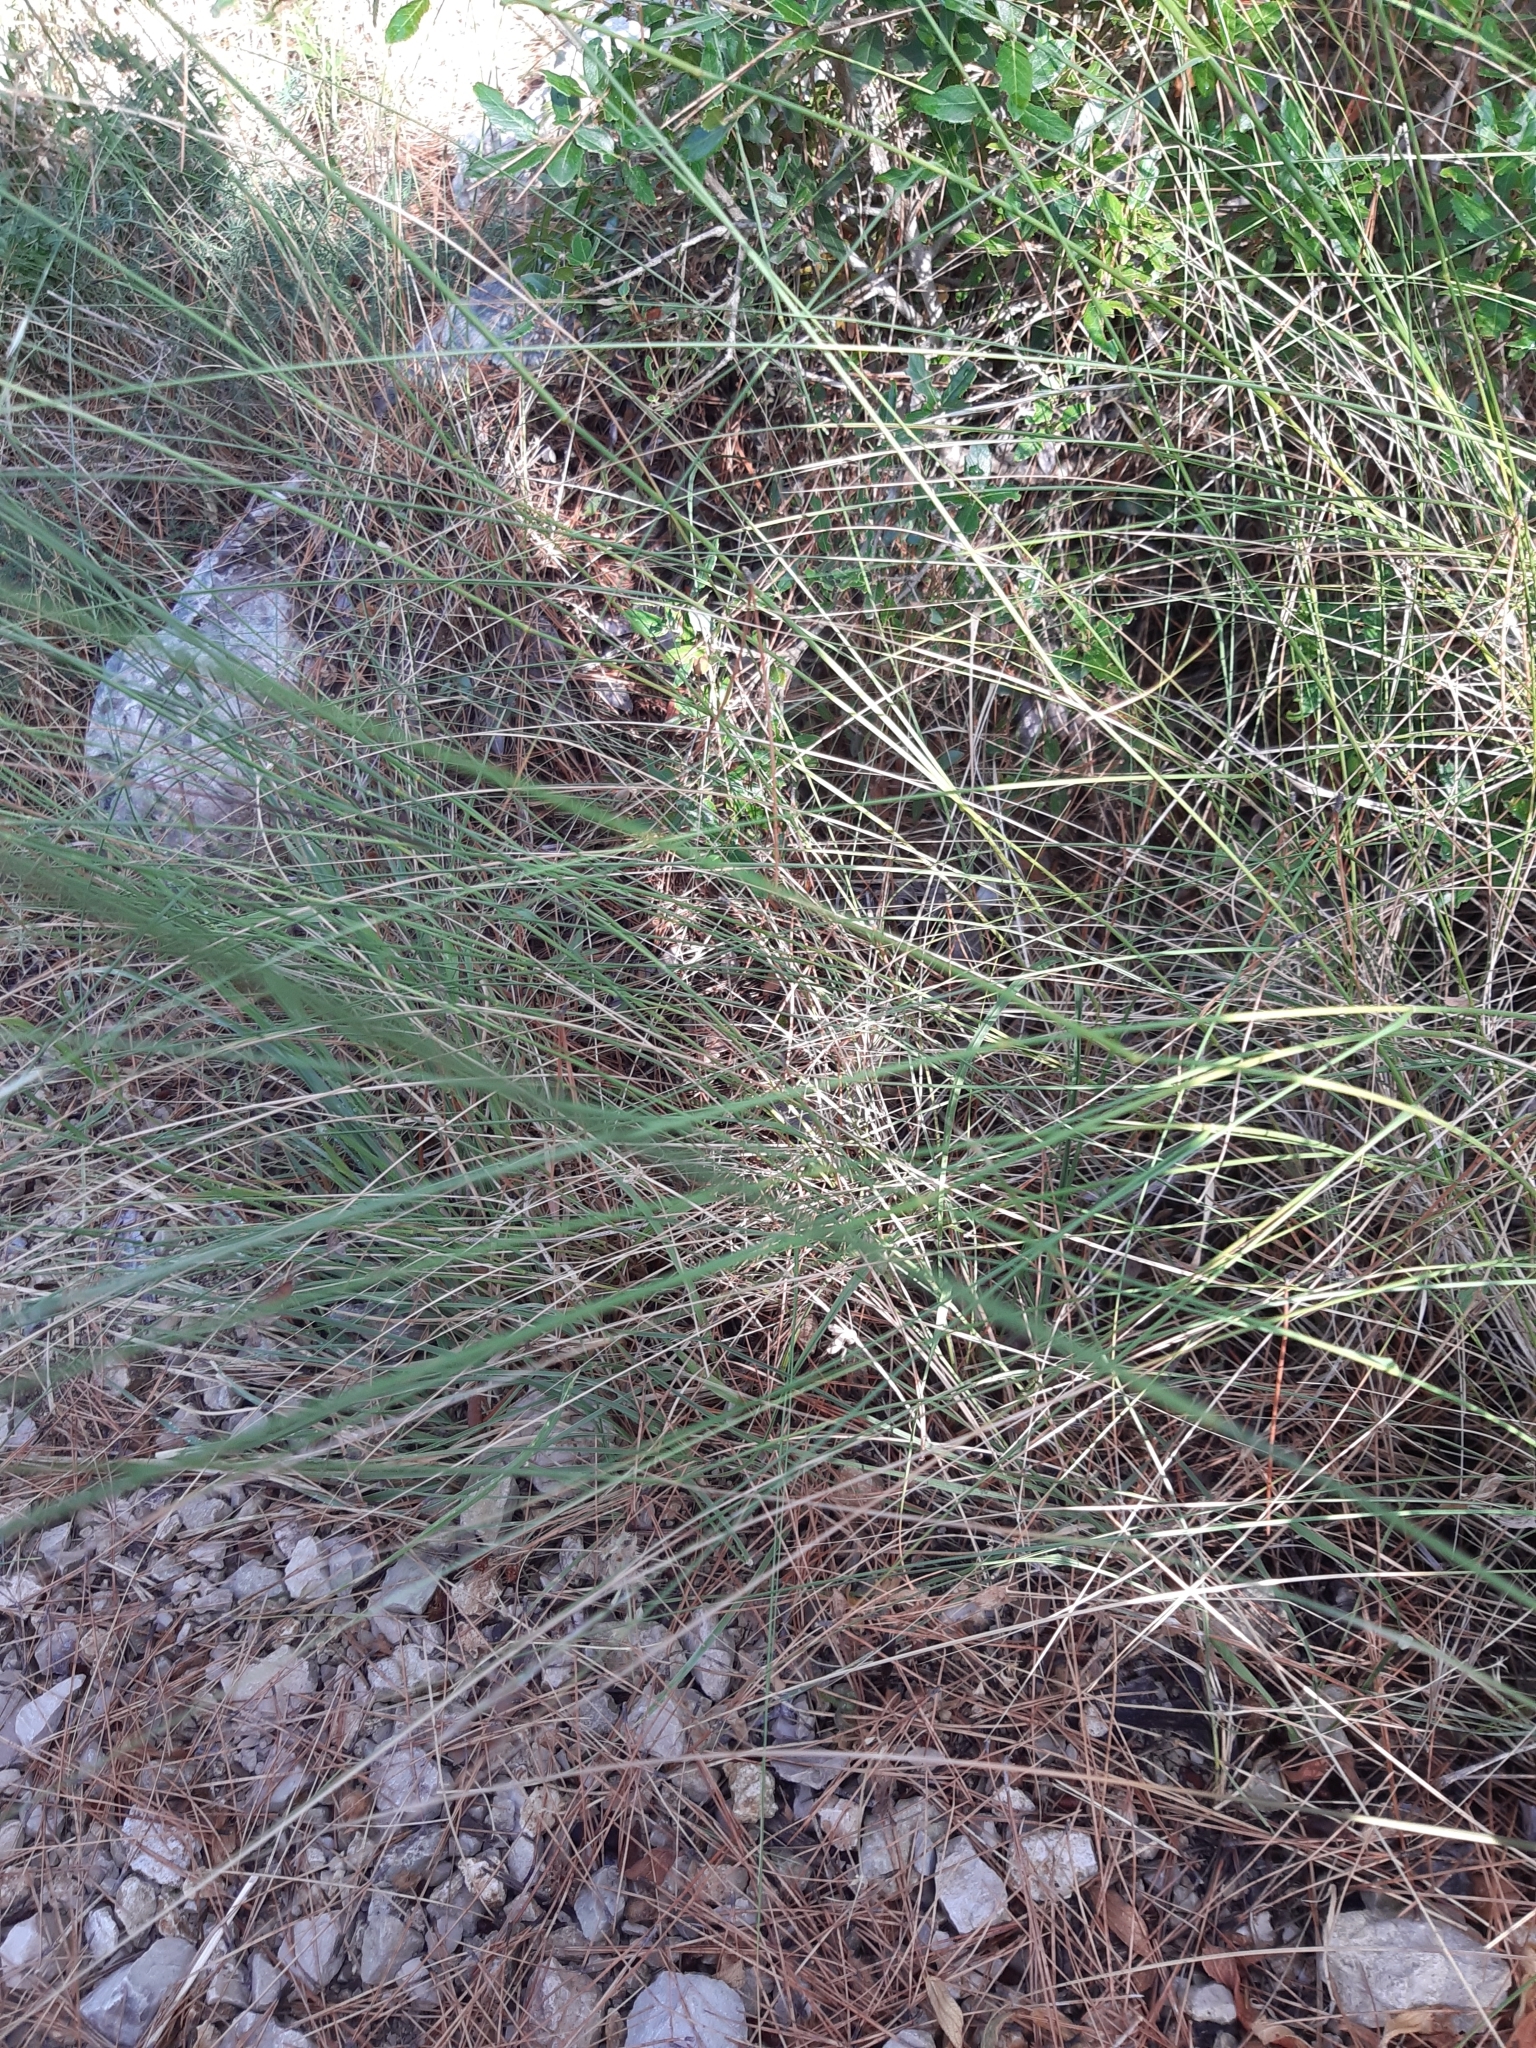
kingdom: Plantae
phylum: Tracheophyta
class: Liliopsida
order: Poales
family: Poaceae
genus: Achnatherum
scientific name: Achnatherum bromoides
